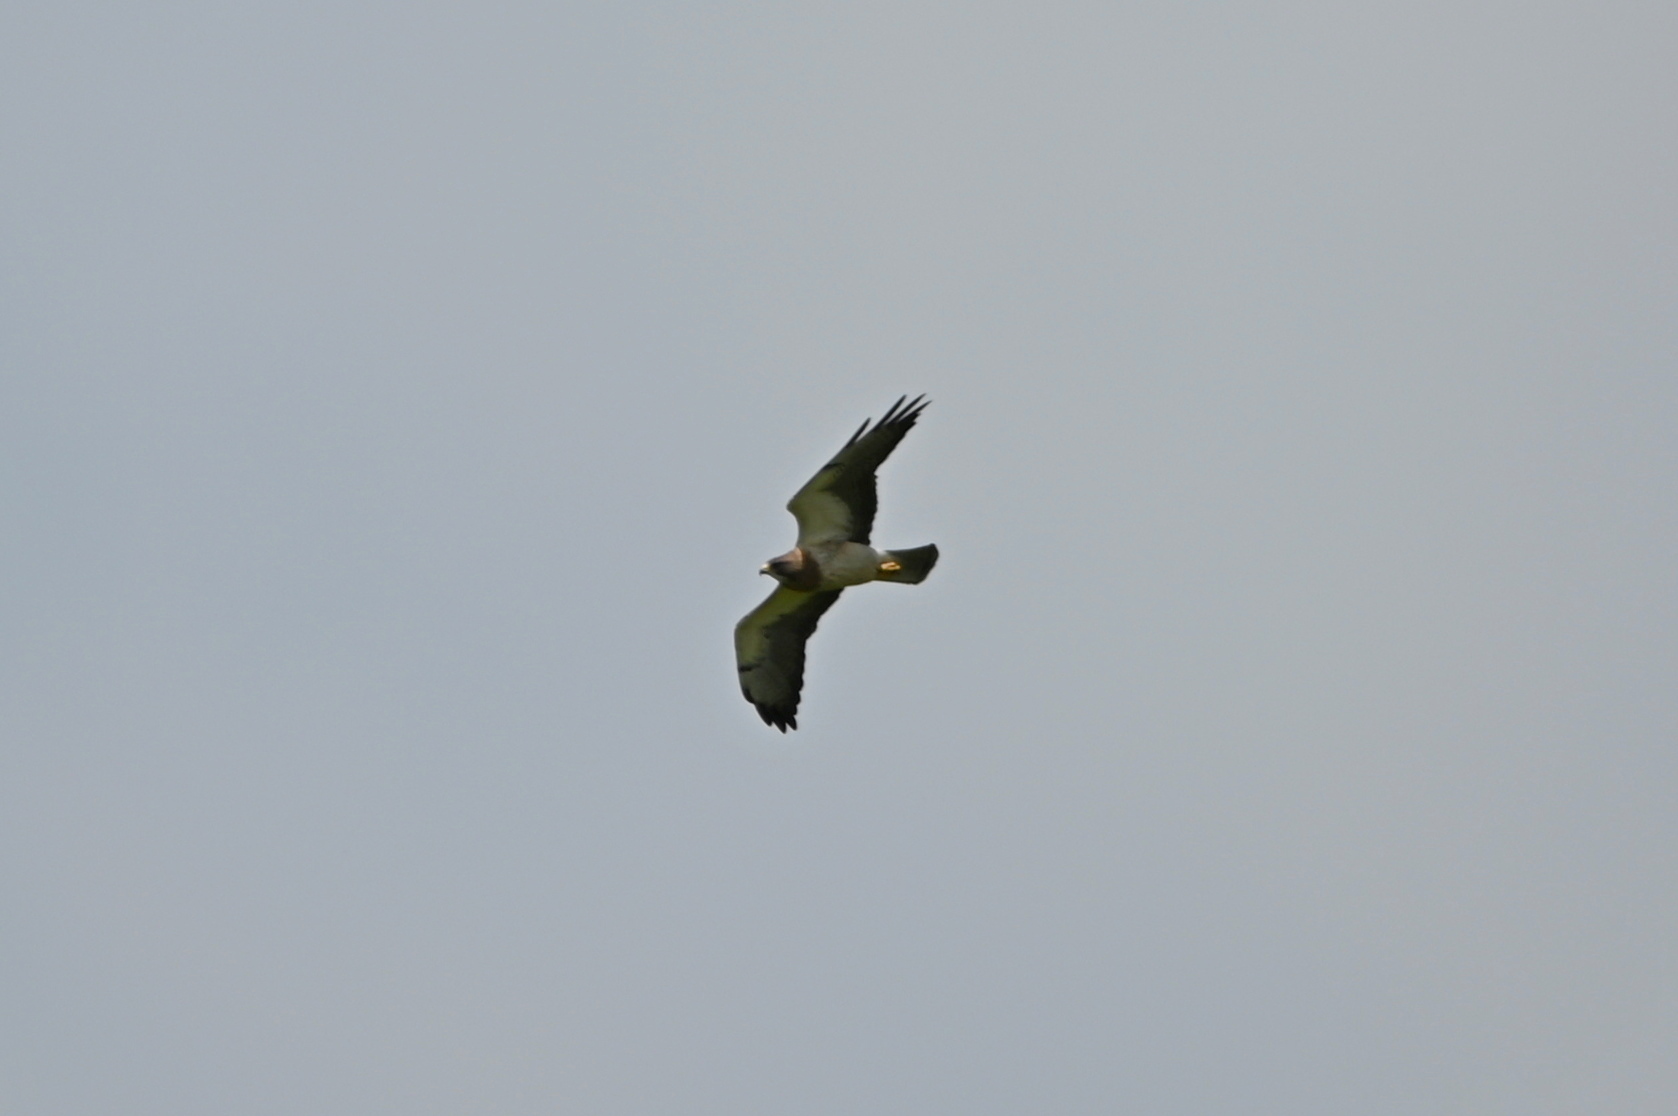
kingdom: Animalia
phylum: Chordata
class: Aves
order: Accipitriformes
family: Accipitridae
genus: Buteo
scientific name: Buteo swainsoni
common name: Swainson's hawk
